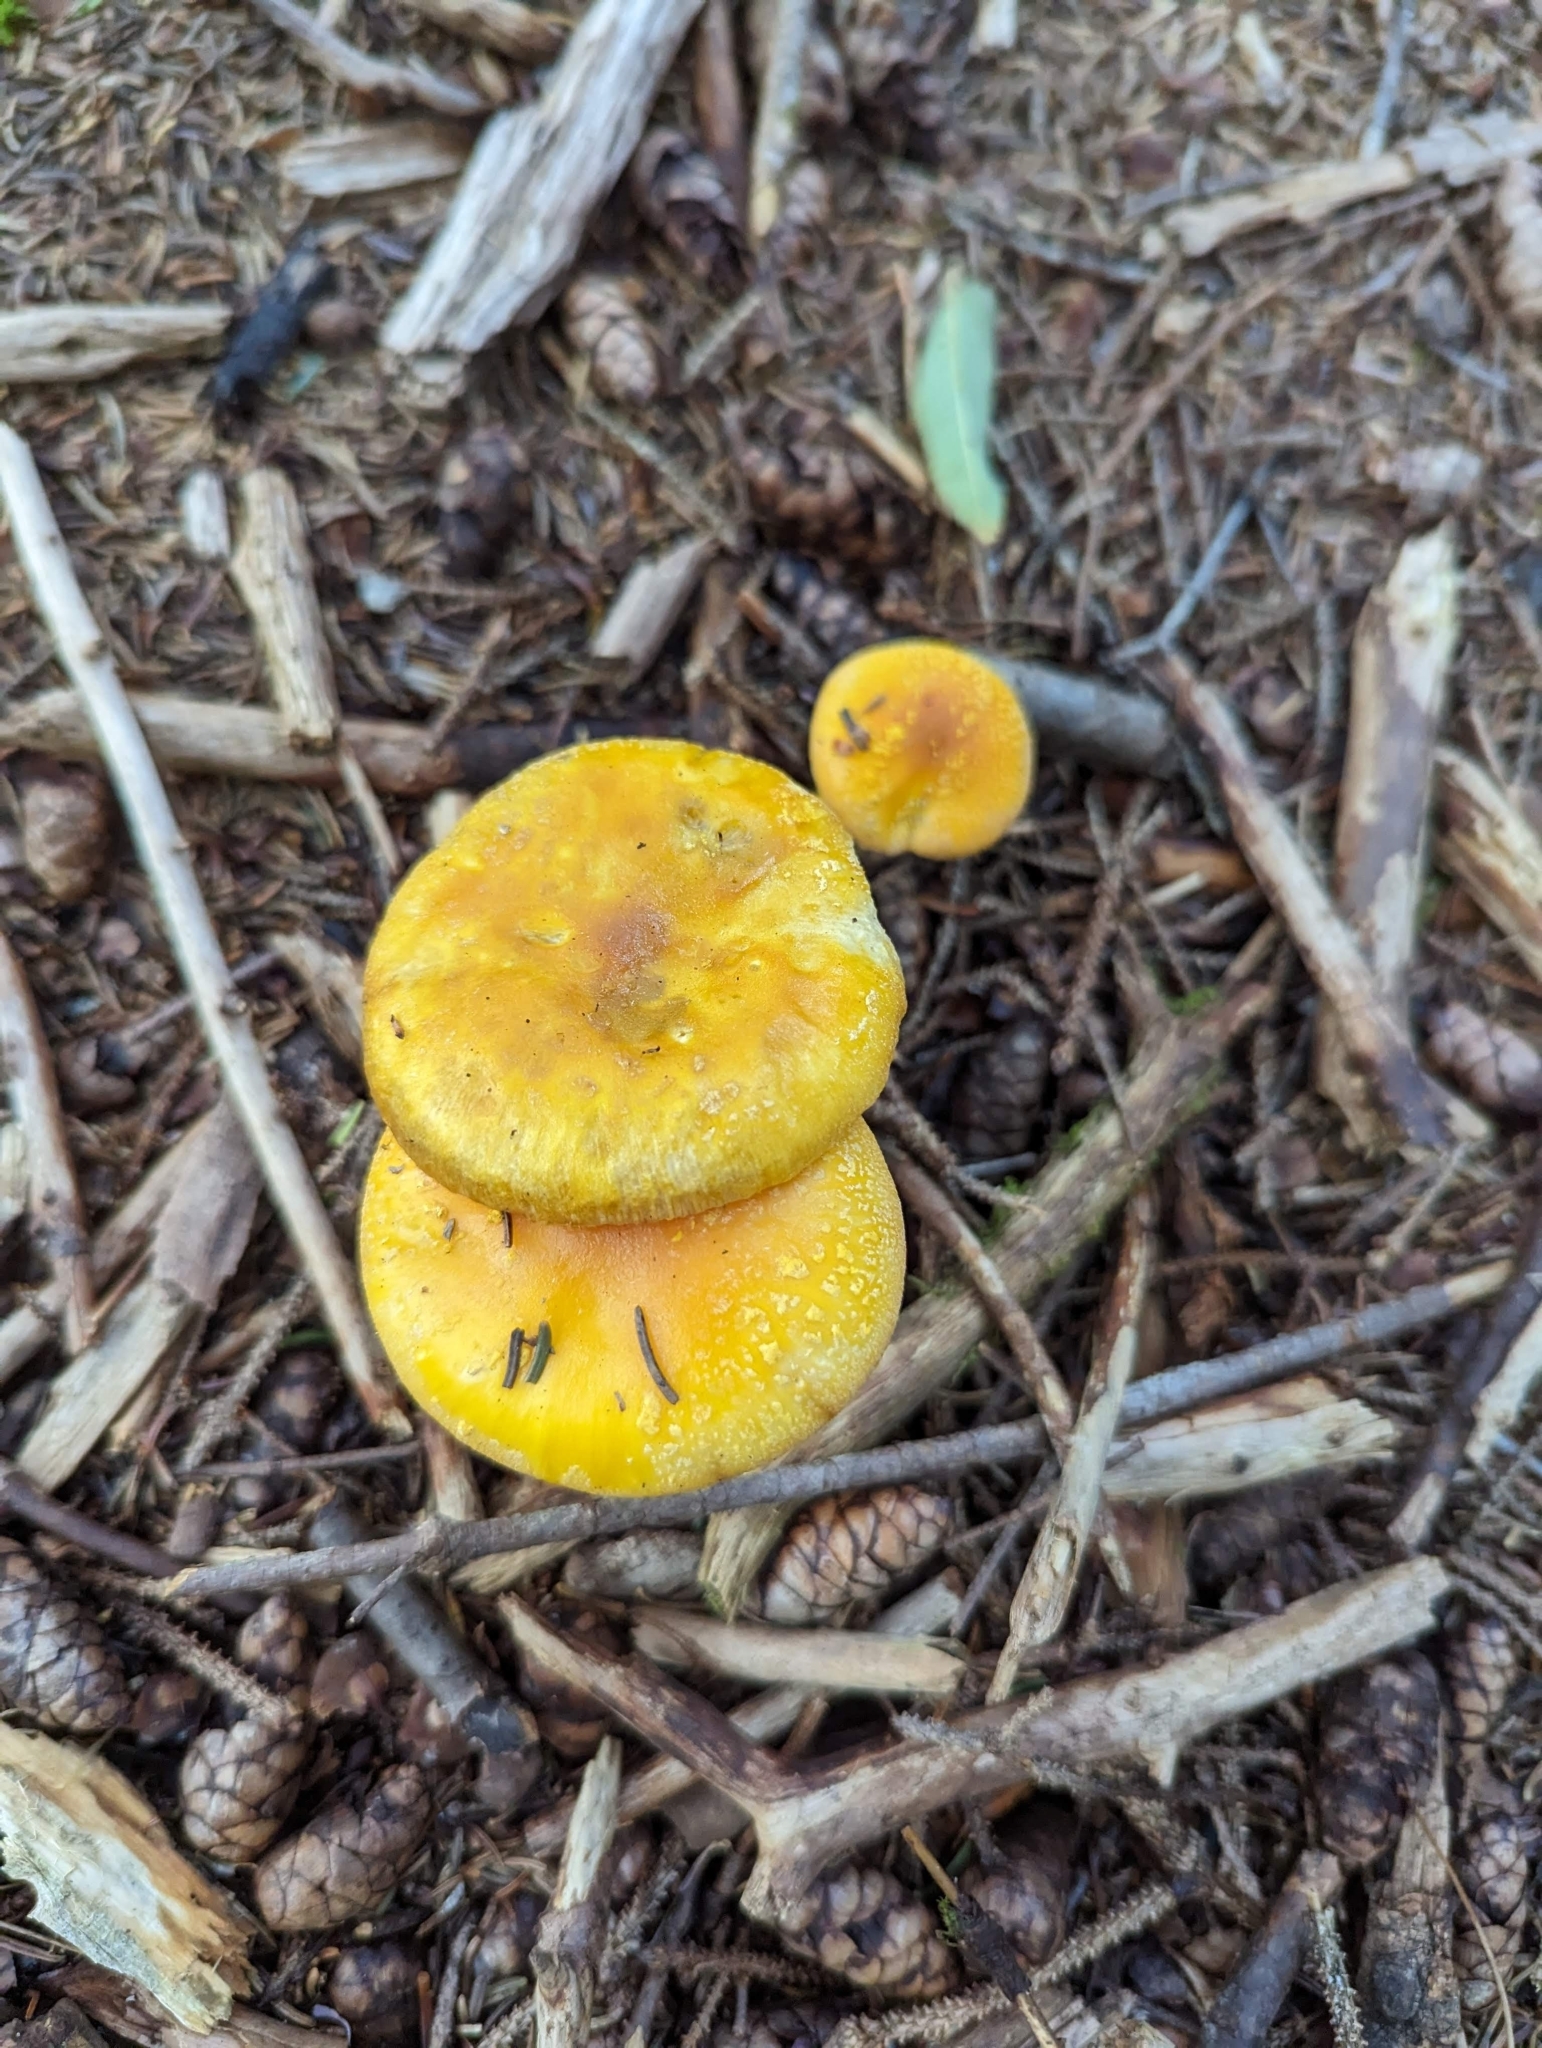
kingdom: Fungi
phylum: Basidiomycota
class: Agaricomycetes
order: Agaricales
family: Amanitaceae
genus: Amanita
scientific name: Amanita flavoconia
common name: Yellow patches
